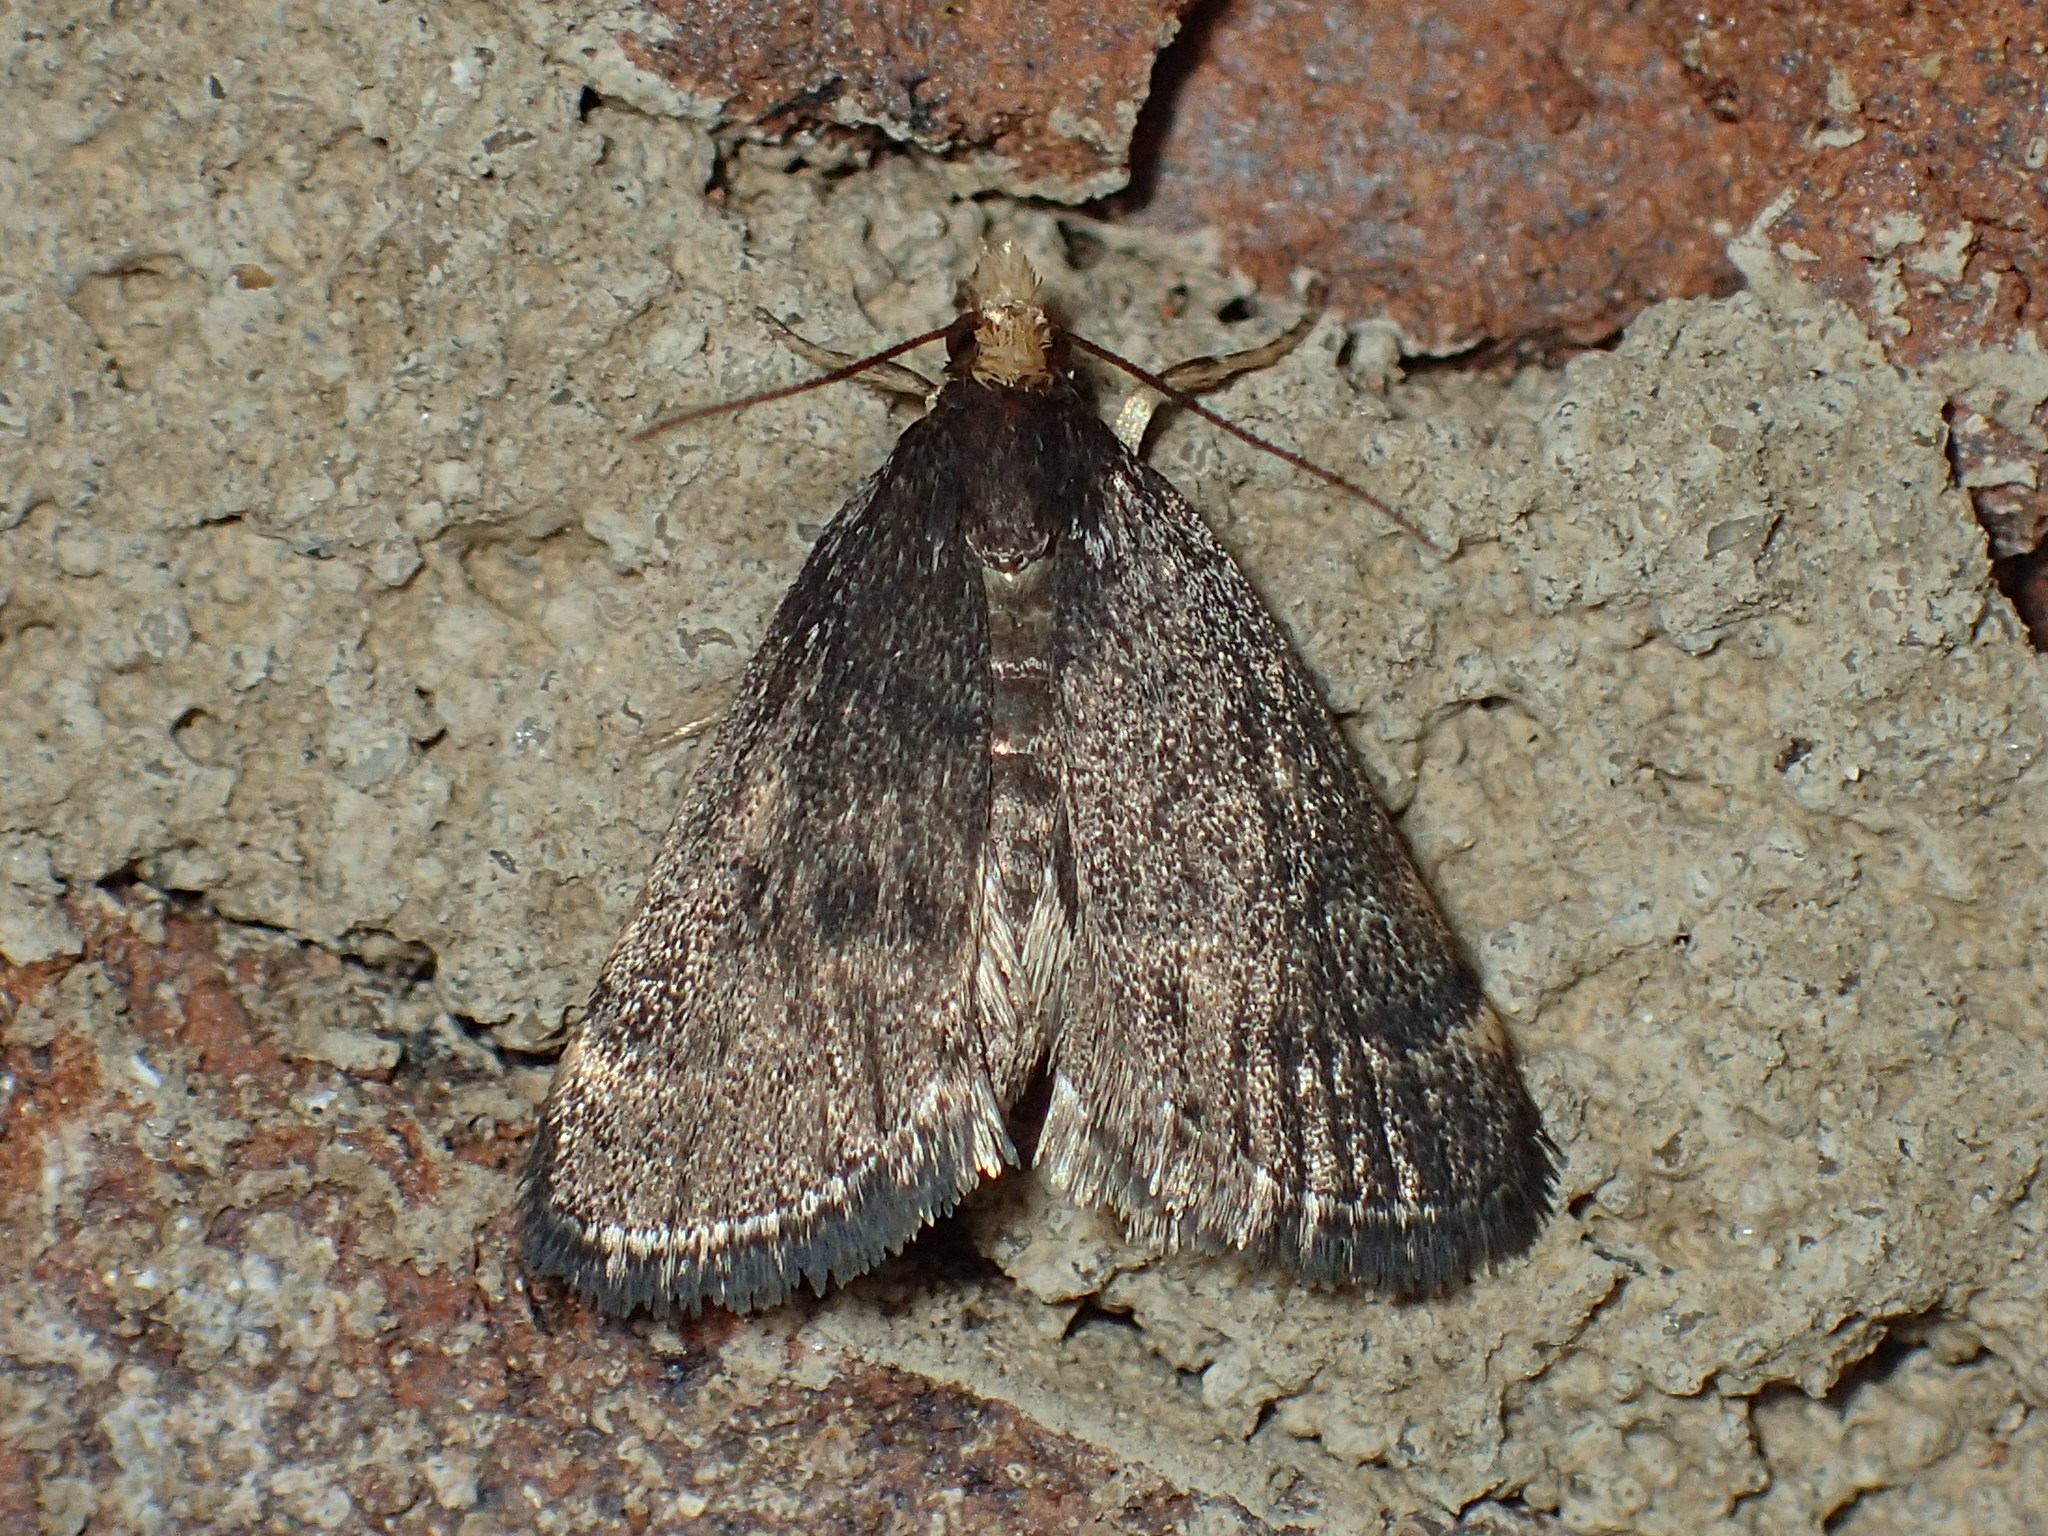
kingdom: Animalia
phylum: Arthropoda
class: Insecta
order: Lepidoptera
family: Crambidae
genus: Pyrausta
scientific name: Pyrausta merrickalis
